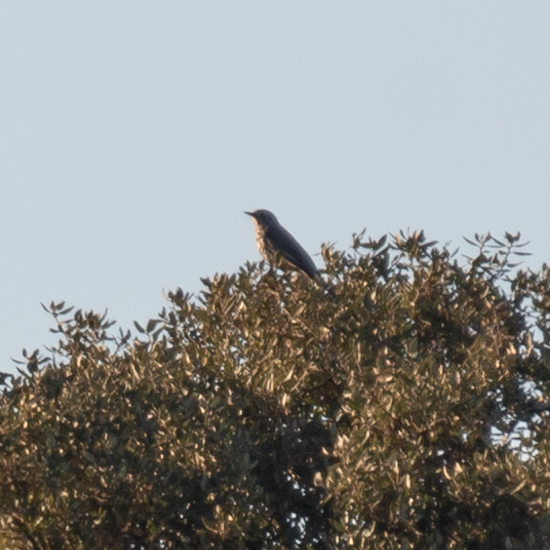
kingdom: Animalia
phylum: Chordata
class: Aves
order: Passeriformes
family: Turdidae
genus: Turdus
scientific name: Turdus viscivorus
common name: Mistle thrush
